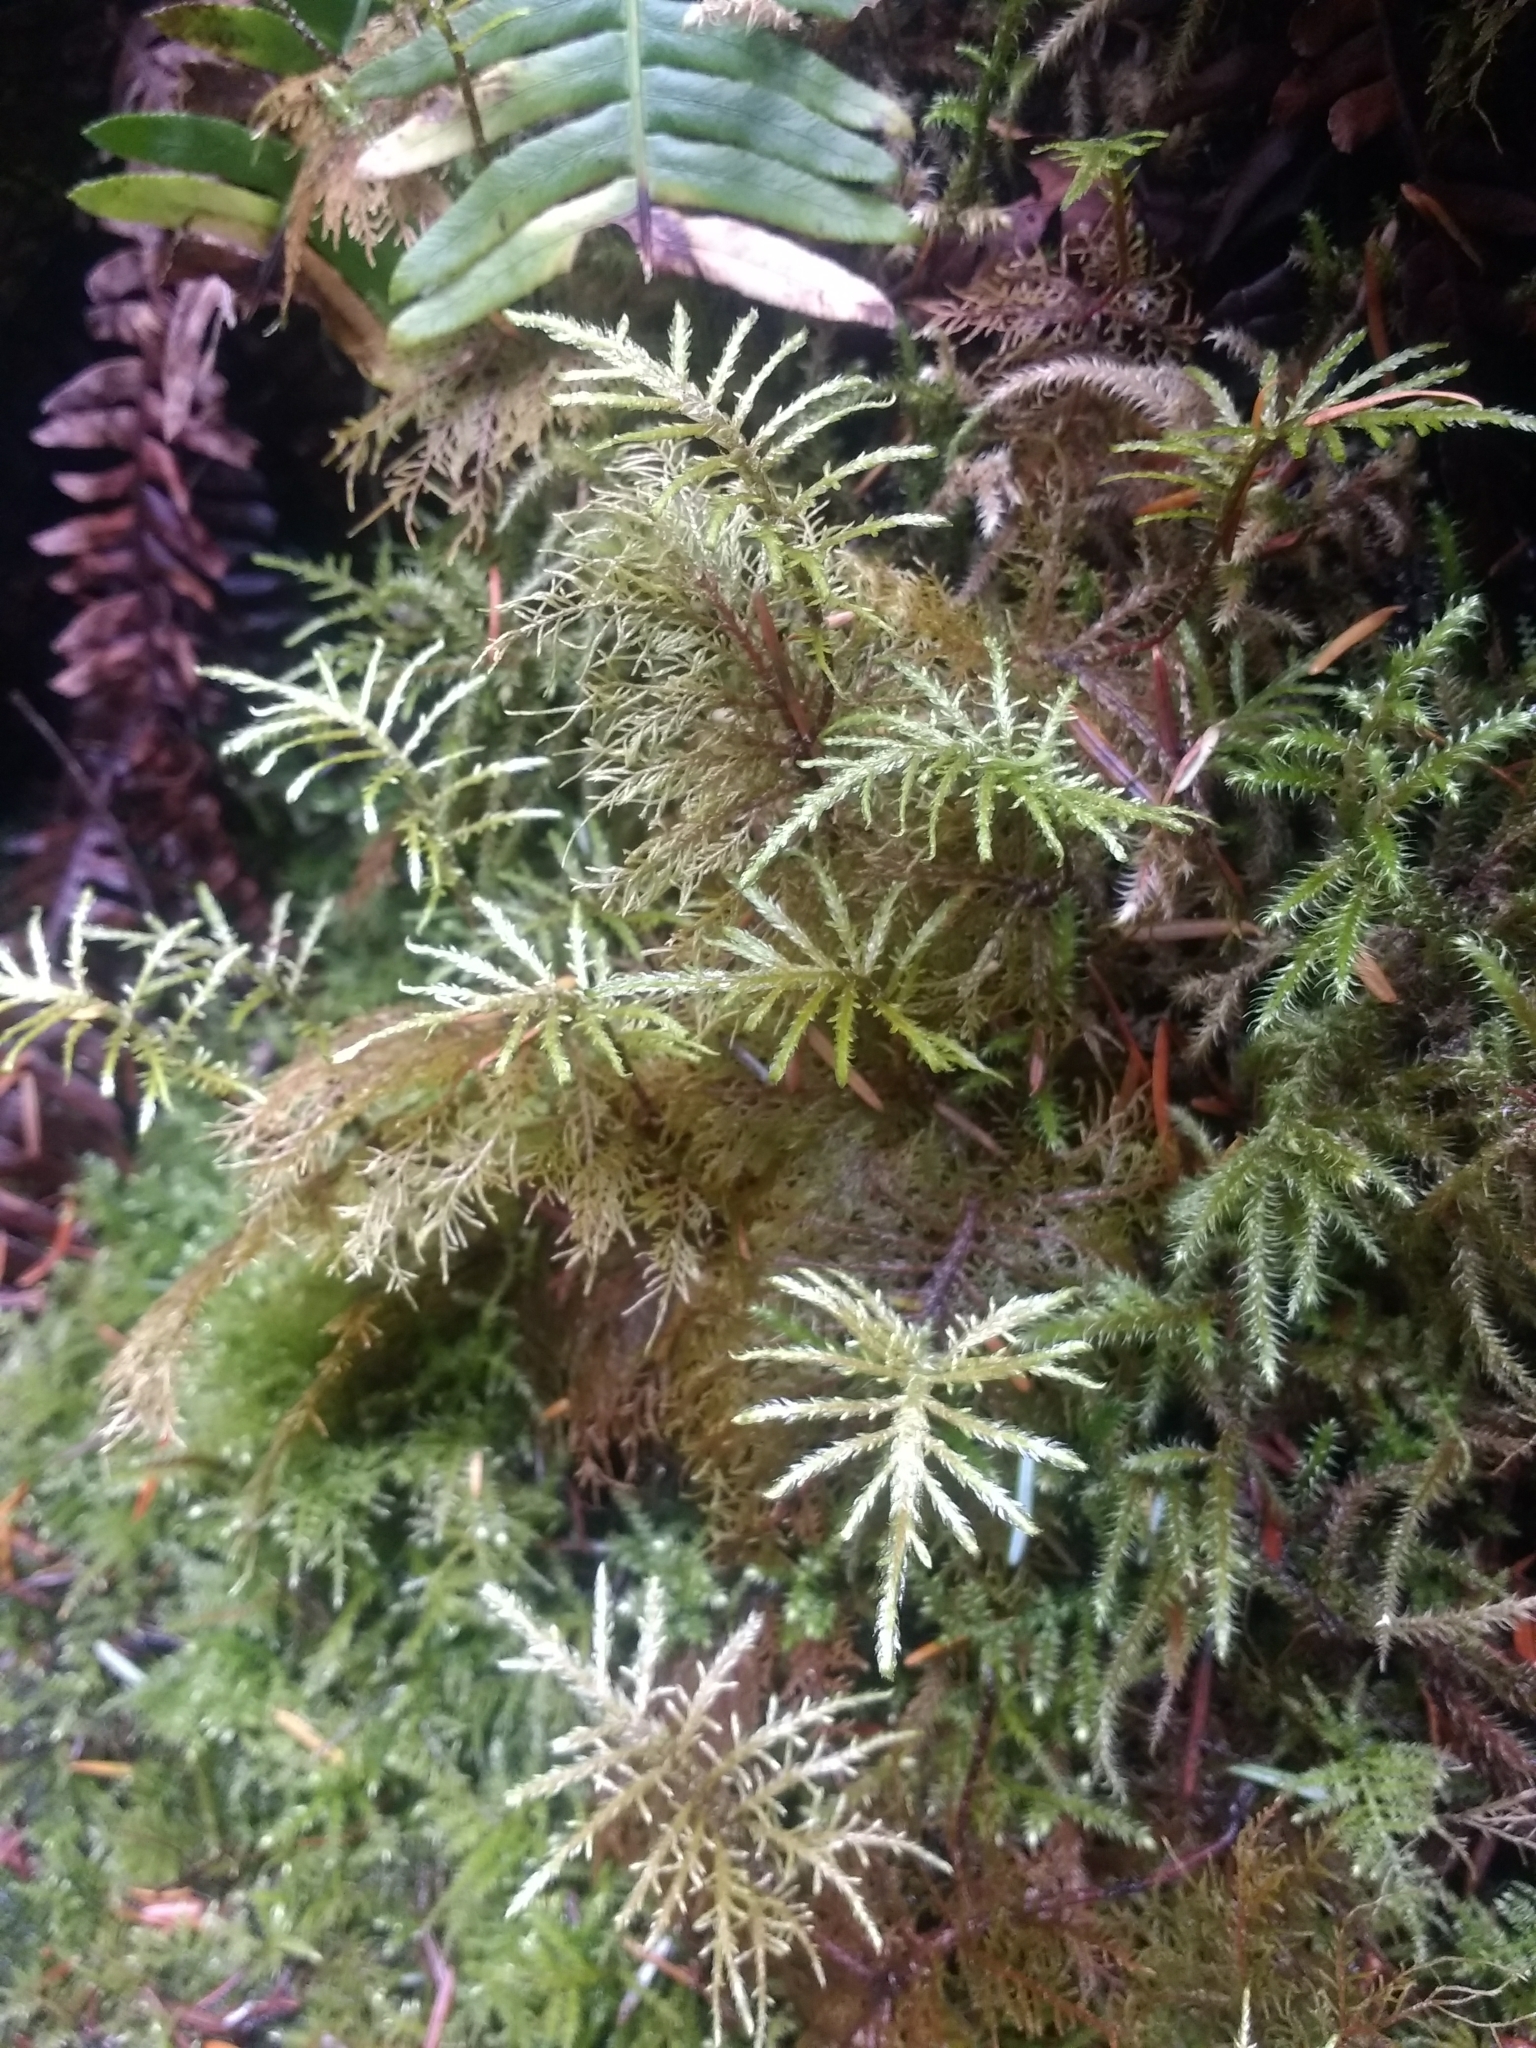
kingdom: Plantae
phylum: Bryophyta
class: Bryopsida
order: Hypnales
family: Hylocomiaceae
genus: Hylocomium
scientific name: Hylocomium splendens
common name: Stairstep moss
